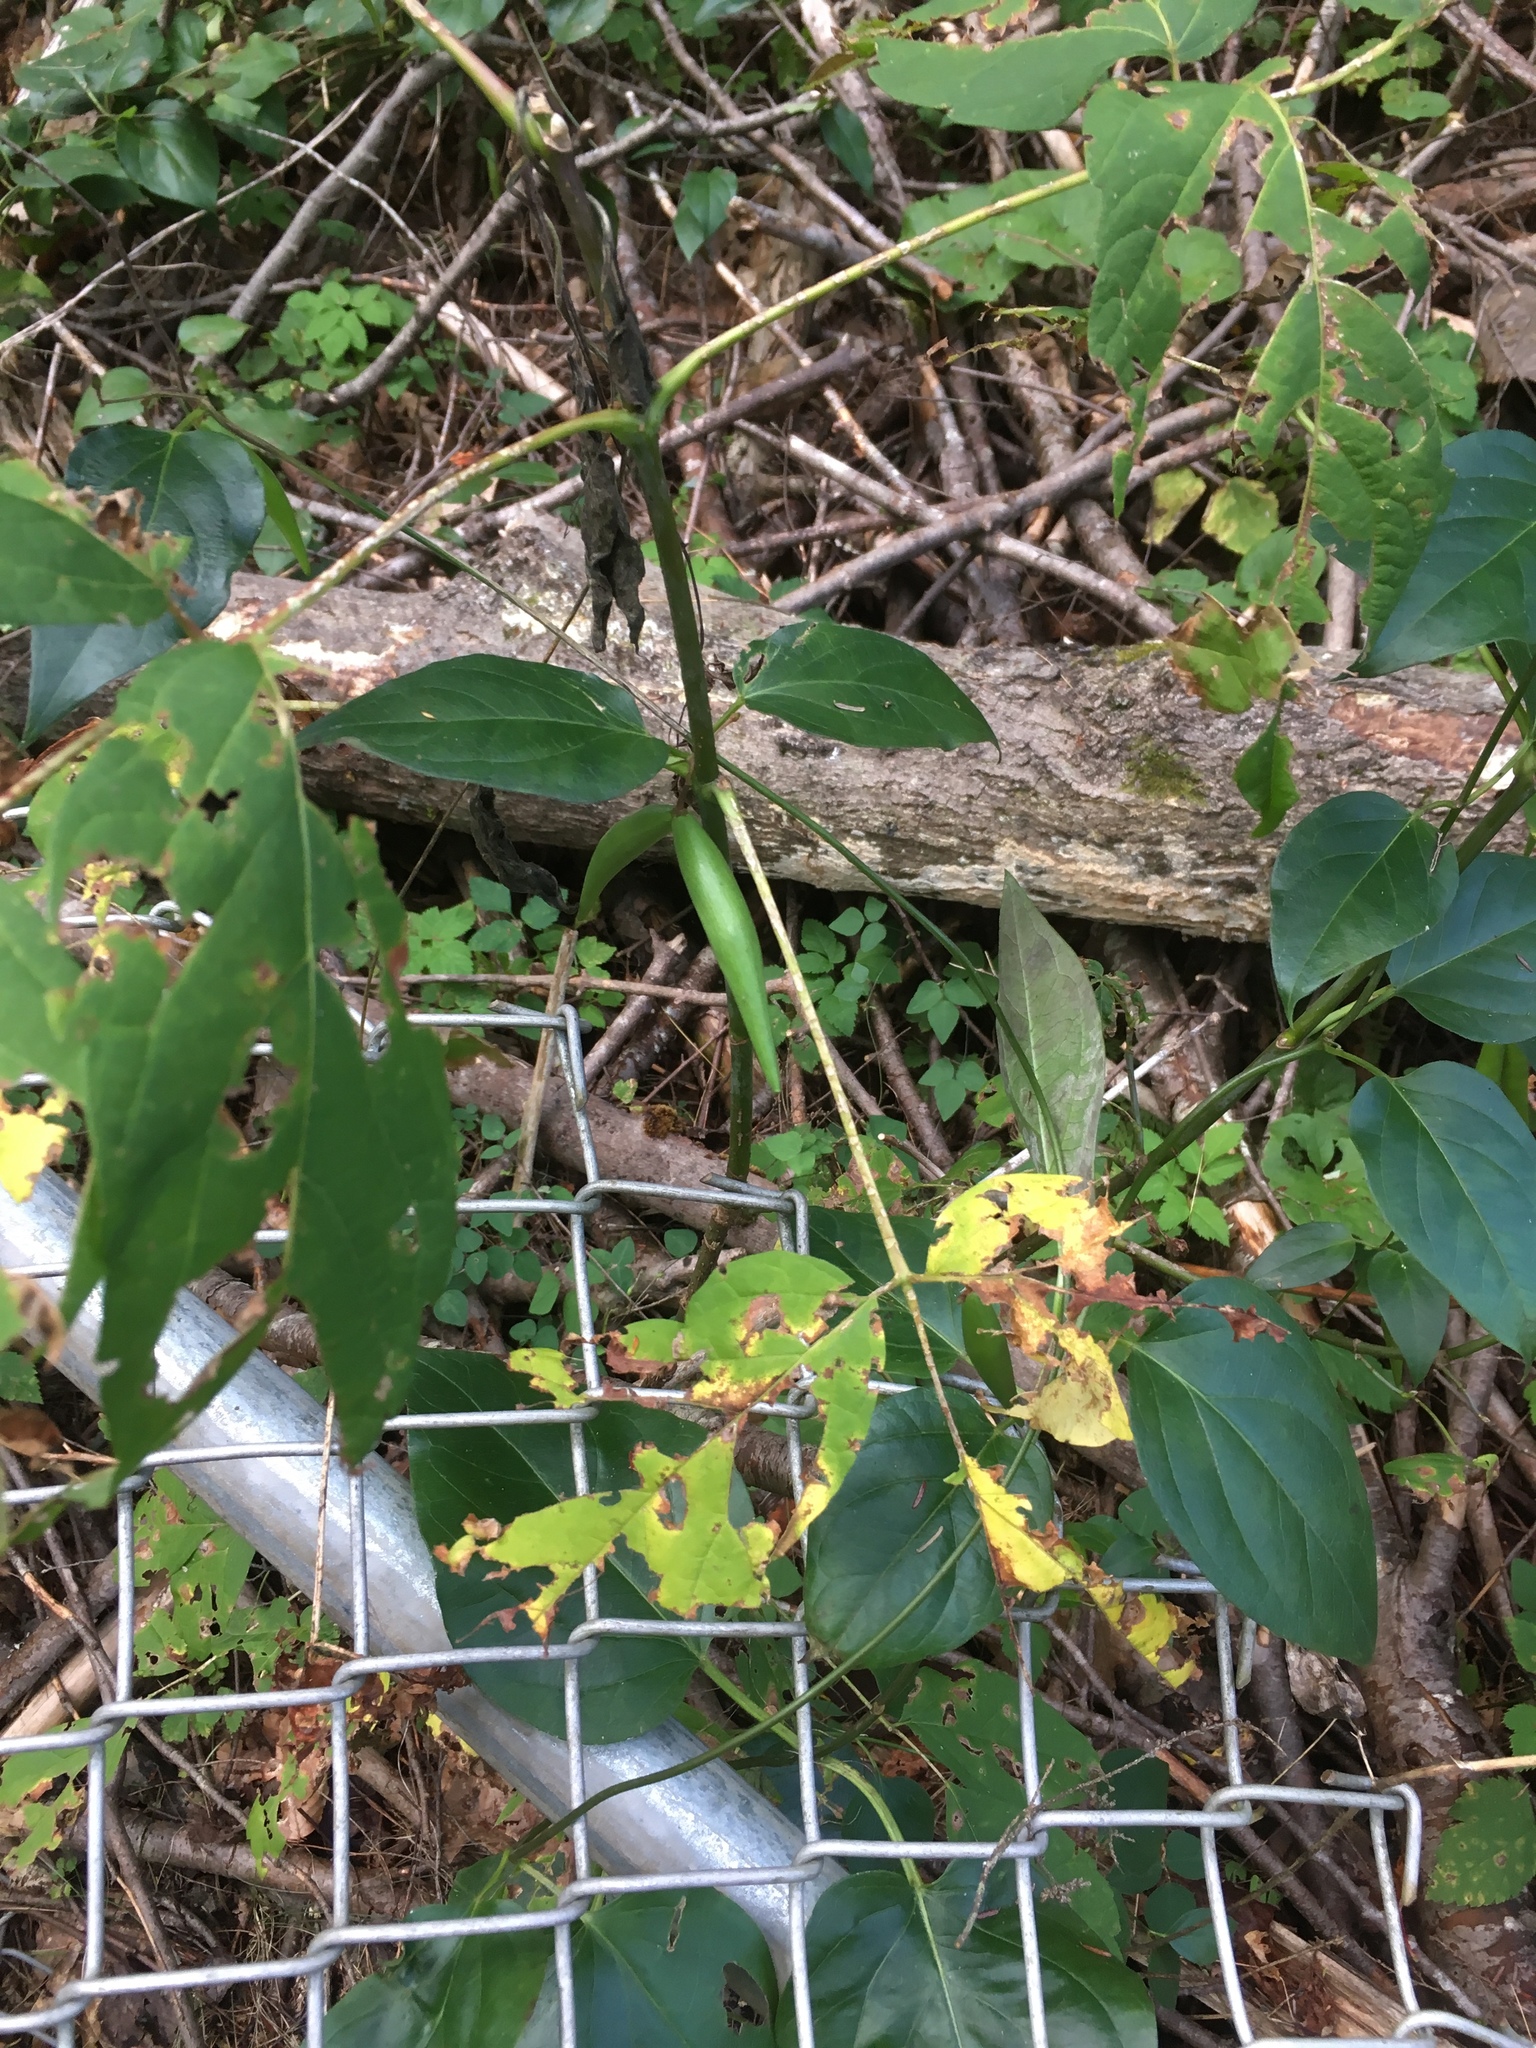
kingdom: Plantae
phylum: Tracheophyta
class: Magnoliopsida
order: Gentianales
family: Apocynaceae
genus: Vincetoxicum
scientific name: Vincetoxicum nigrum
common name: Black swallow-wort
